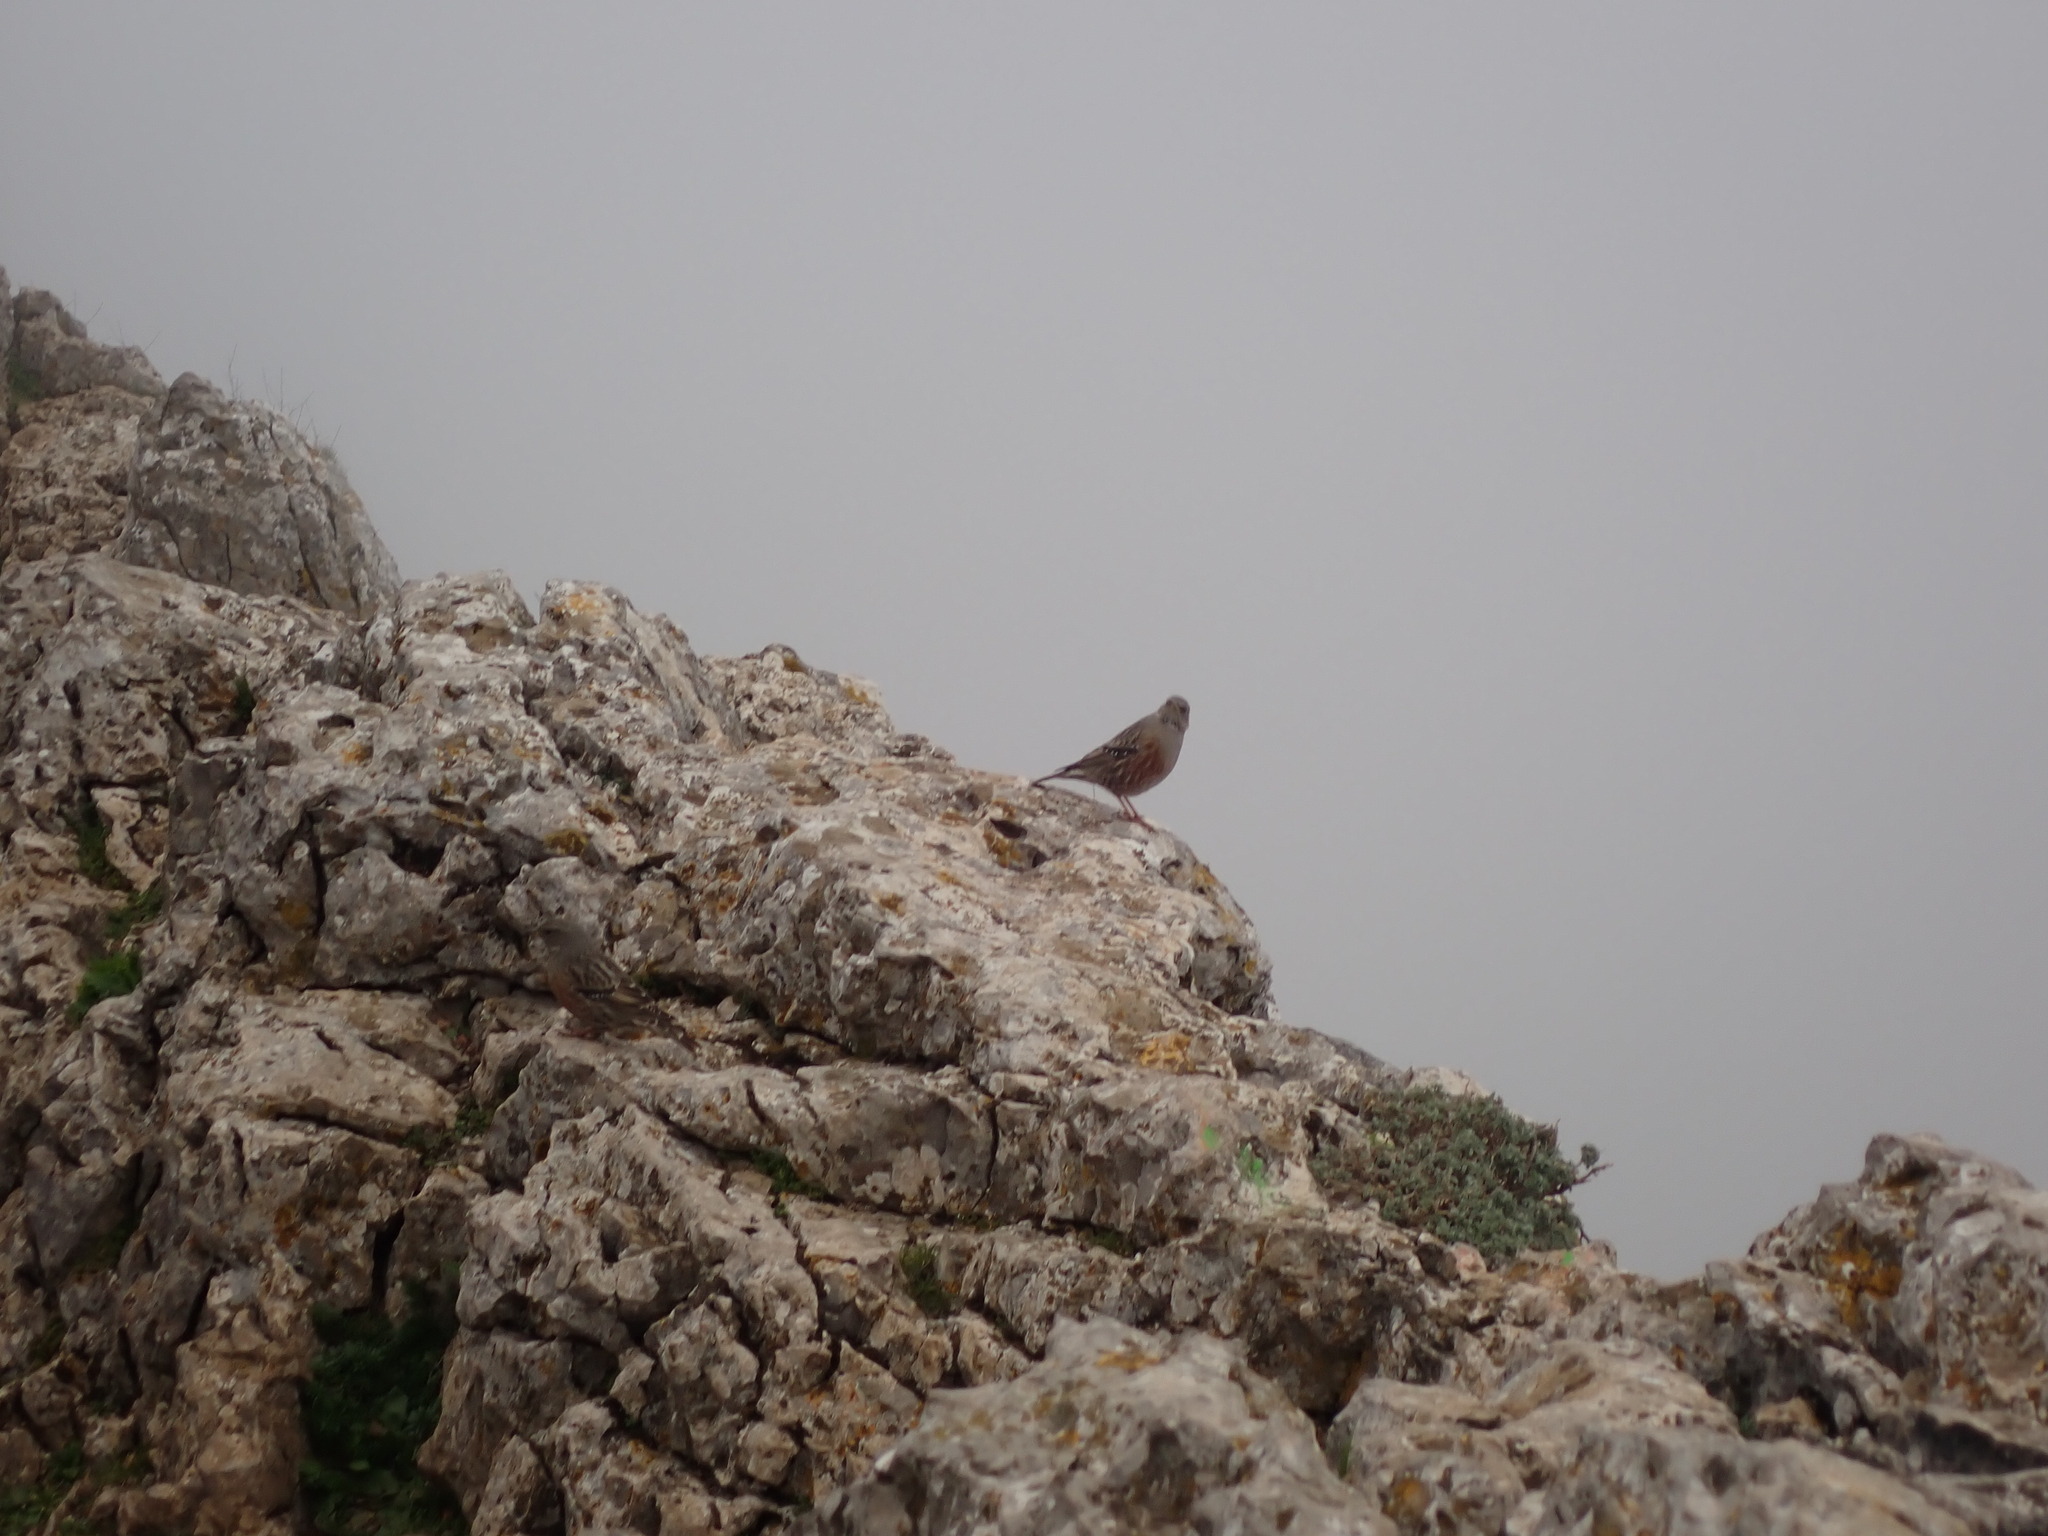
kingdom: Animalia
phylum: Chordata
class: Aves
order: Passeriformes
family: Prunellidae
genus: Prunella
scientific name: Prunella collaris
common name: Alpine accentor
